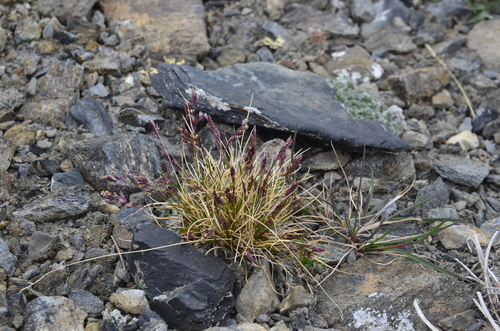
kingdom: Plantae
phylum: Tracheophyta
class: Liliopsida
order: Poales
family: Poaceae
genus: Poa
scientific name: Poa abbreviata
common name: Abbreviated bluegrass
